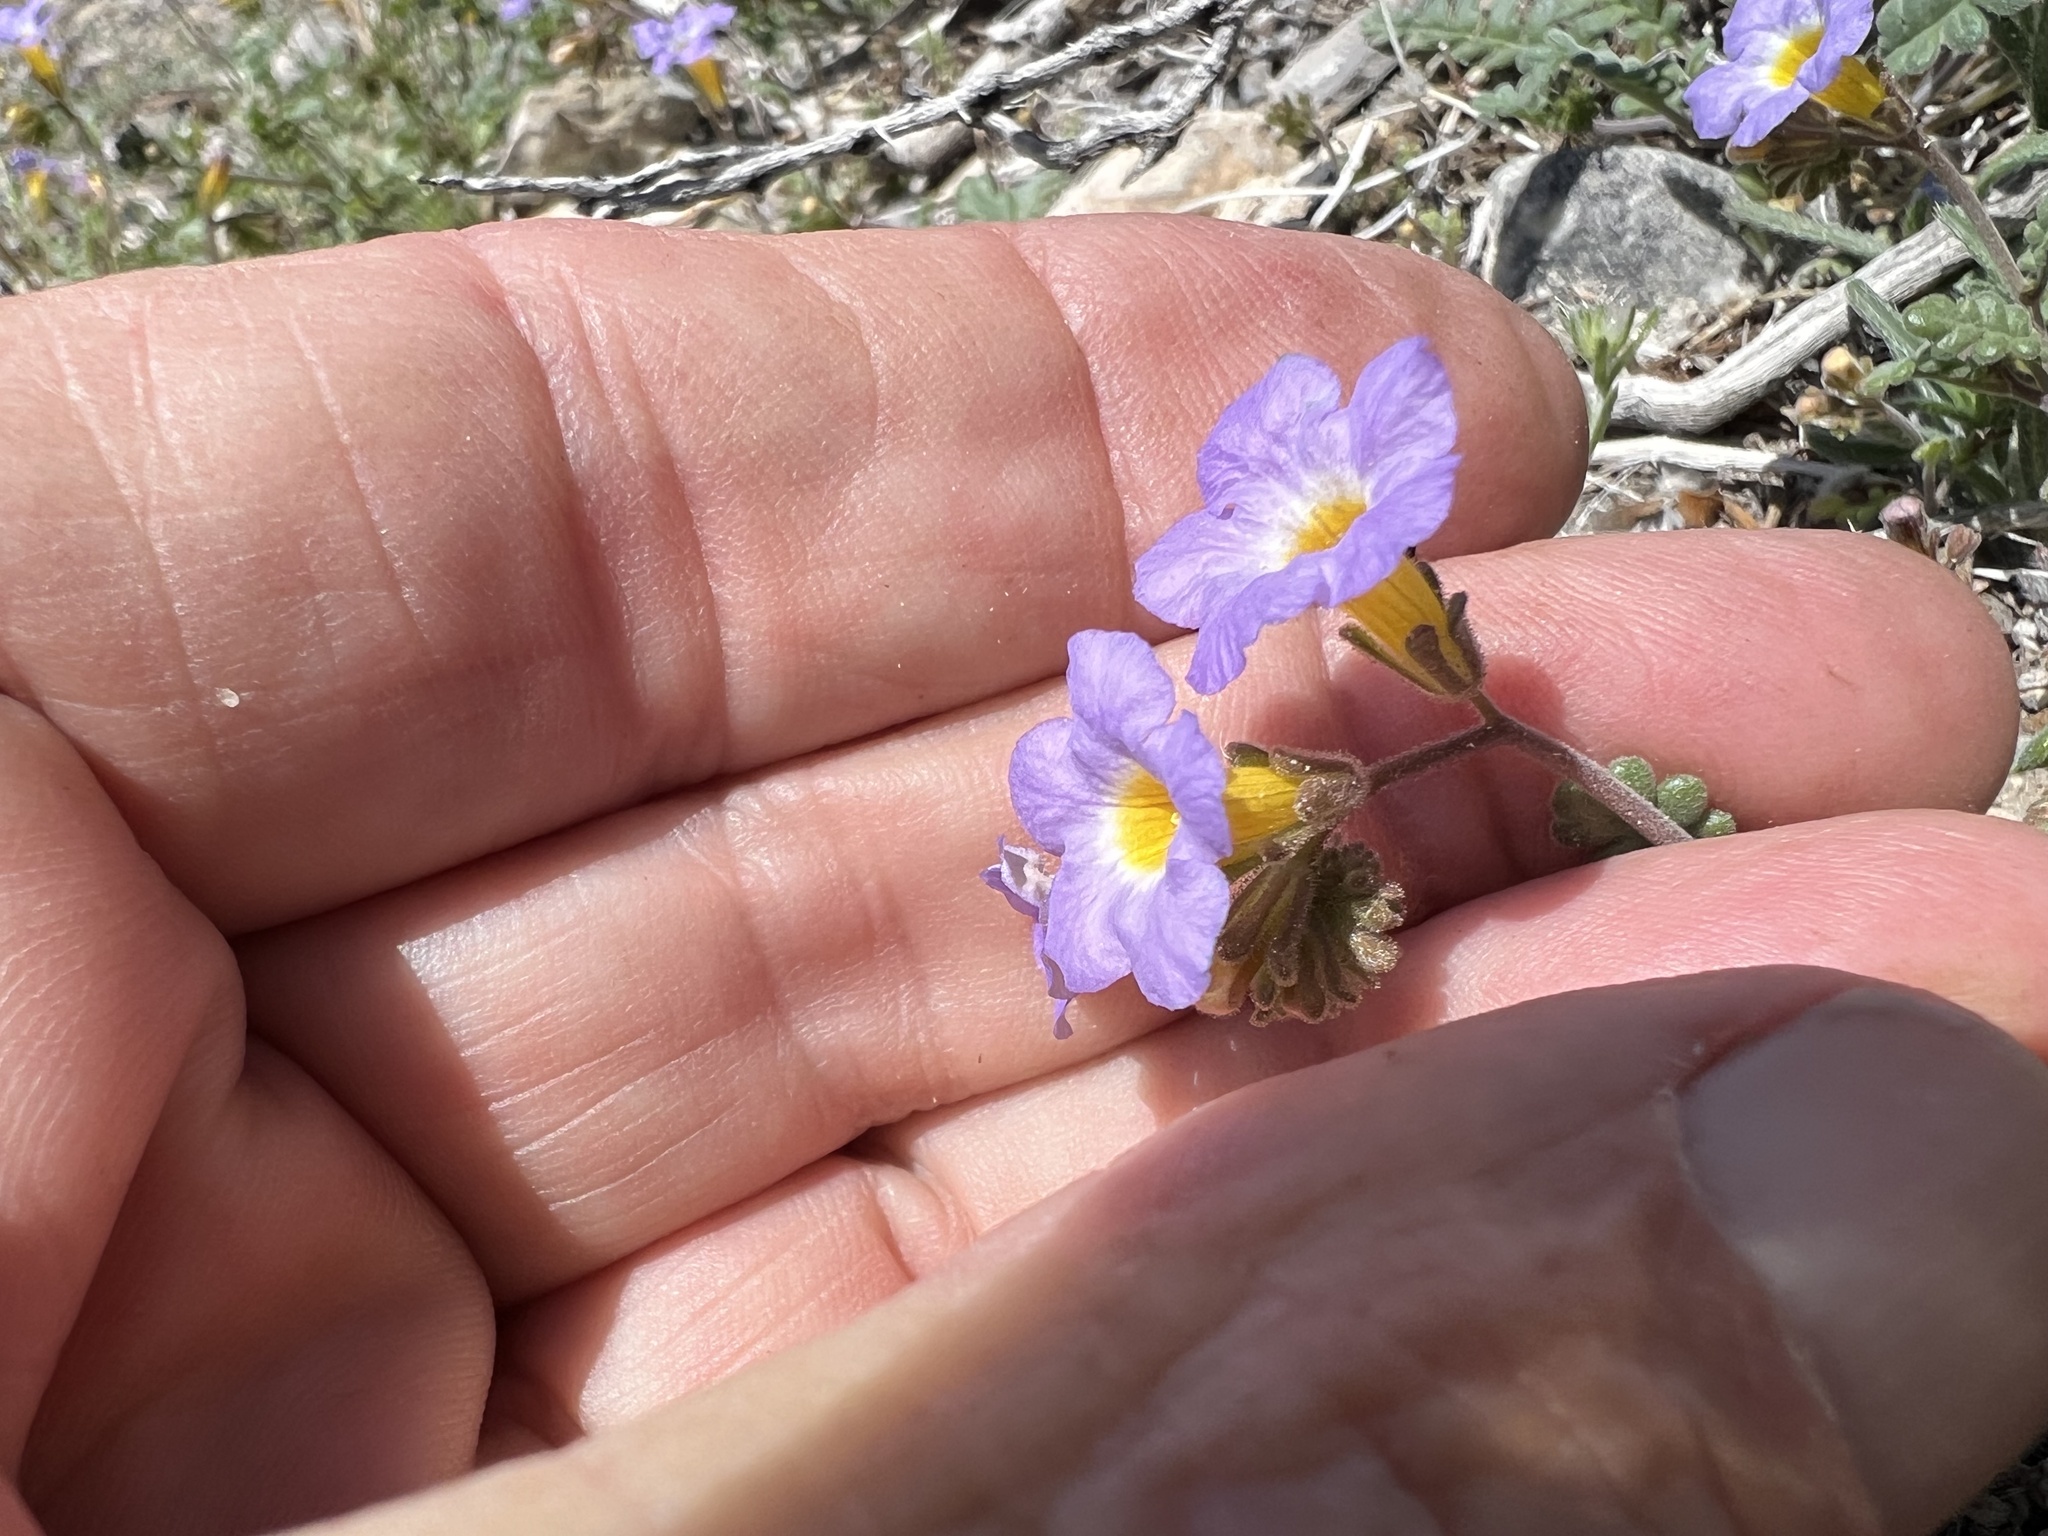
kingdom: Plantae
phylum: Tracheophyta
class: Magnoliopsida
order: Boraginales
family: Hydrophyllaceae
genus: Phacelia
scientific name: Phacelia fremontii
